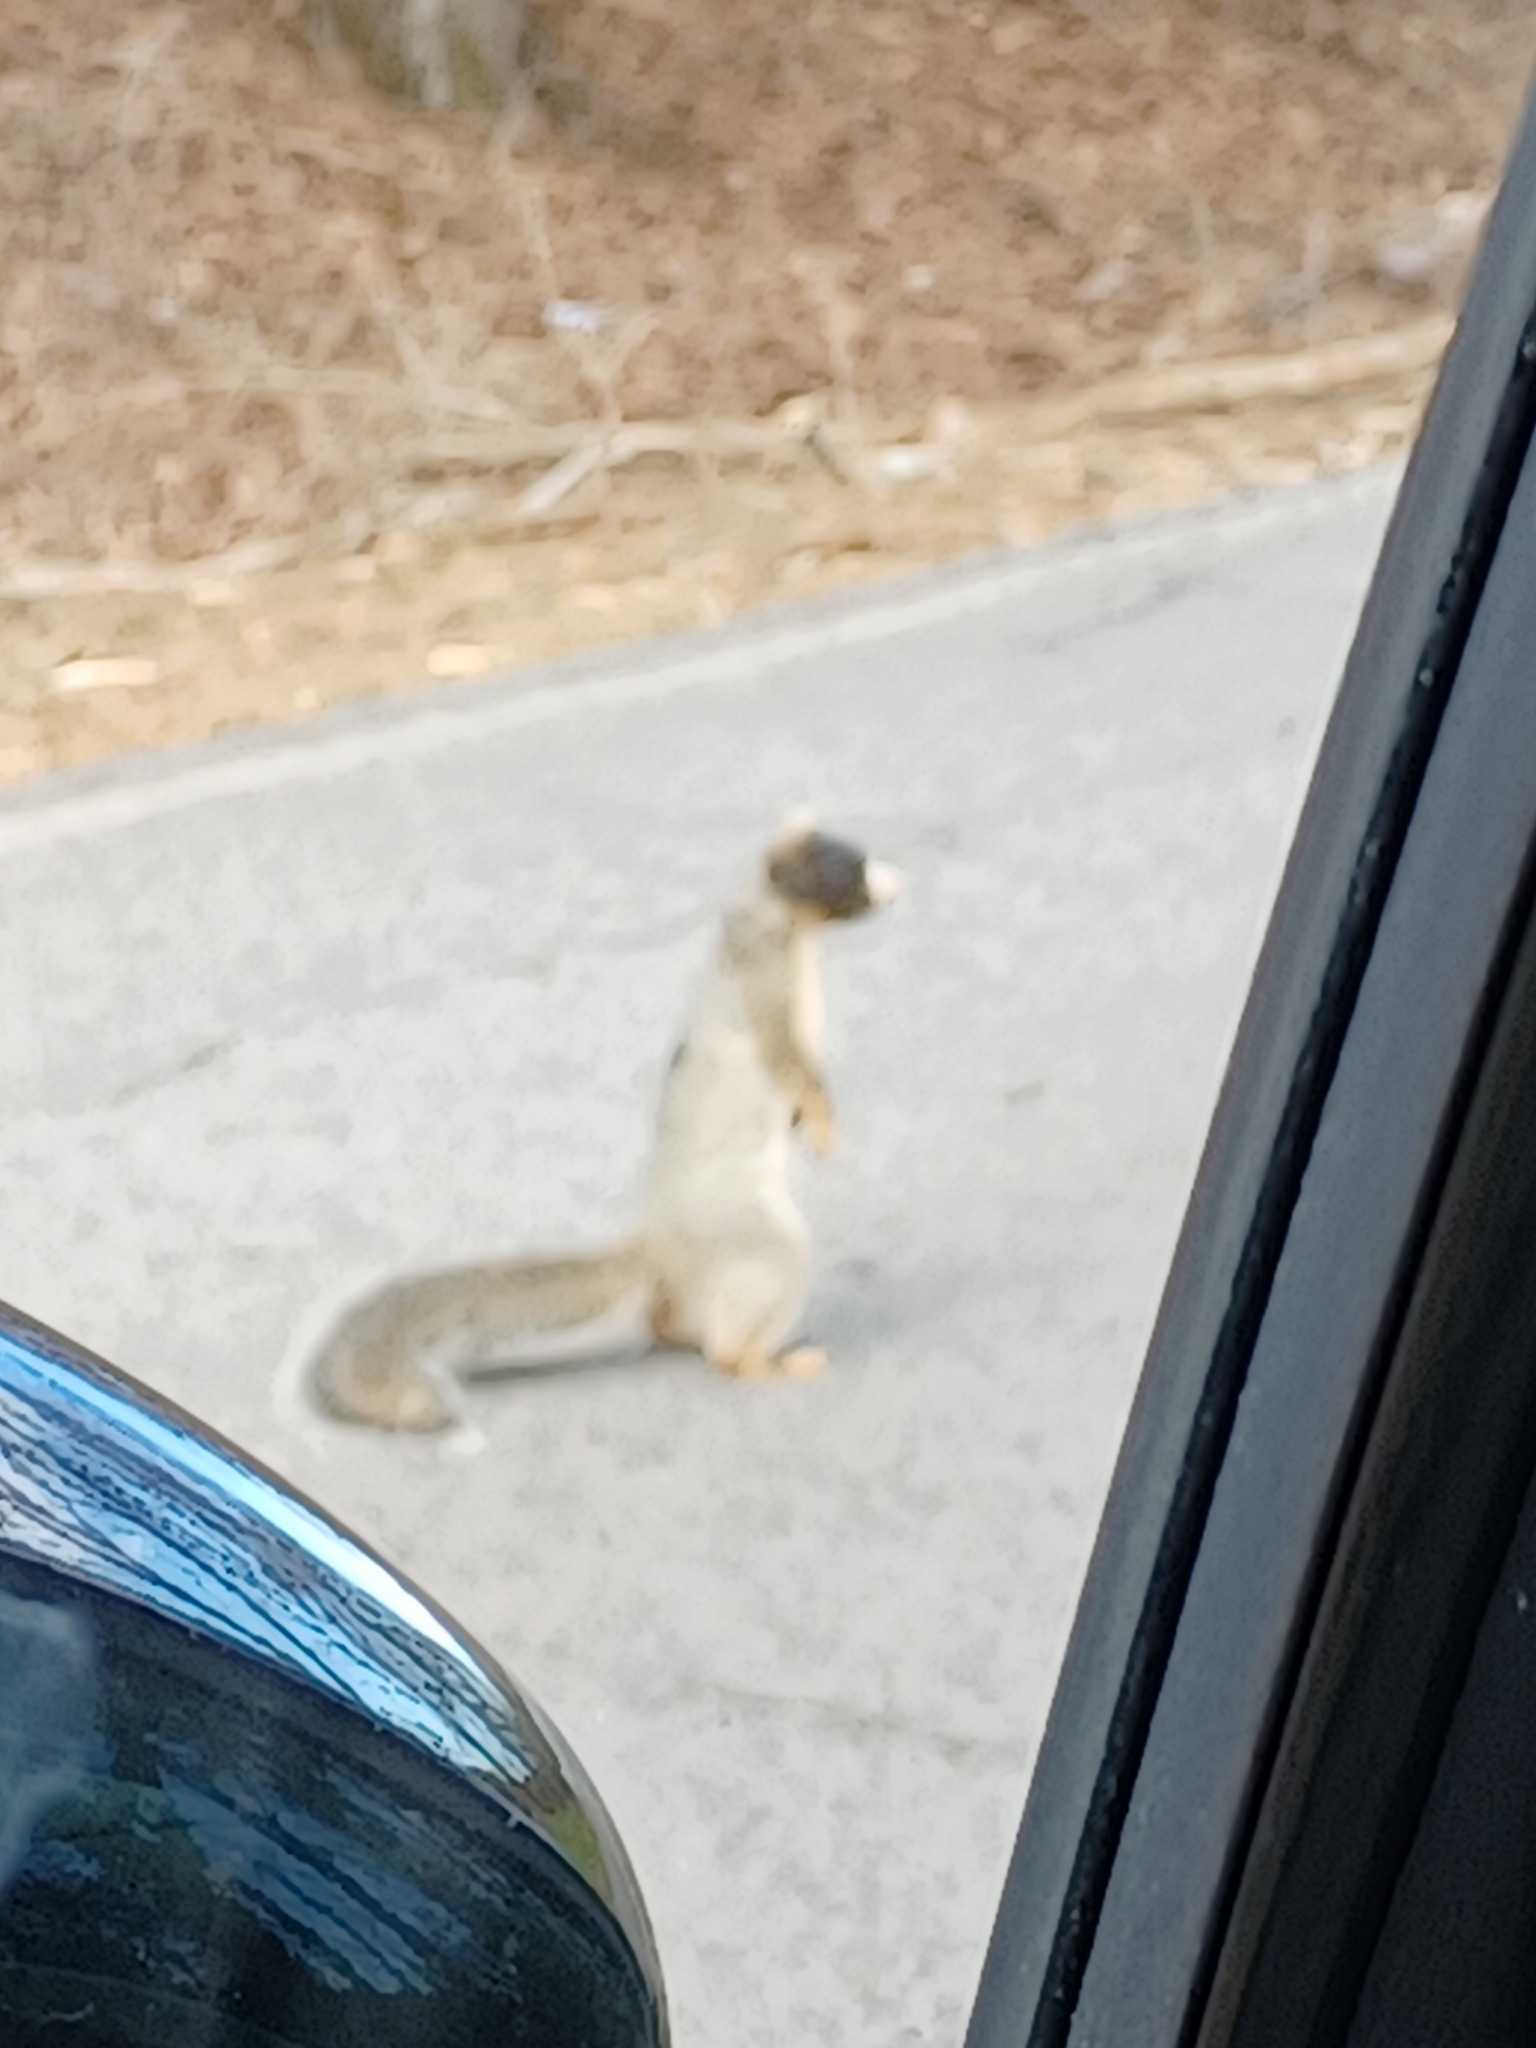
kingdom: Animalia
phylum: Chordata
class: Mammalia
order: Rodentia
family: Sciuridae
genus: Sciurus
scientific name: Sciurus niger
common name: Fox squirrel
